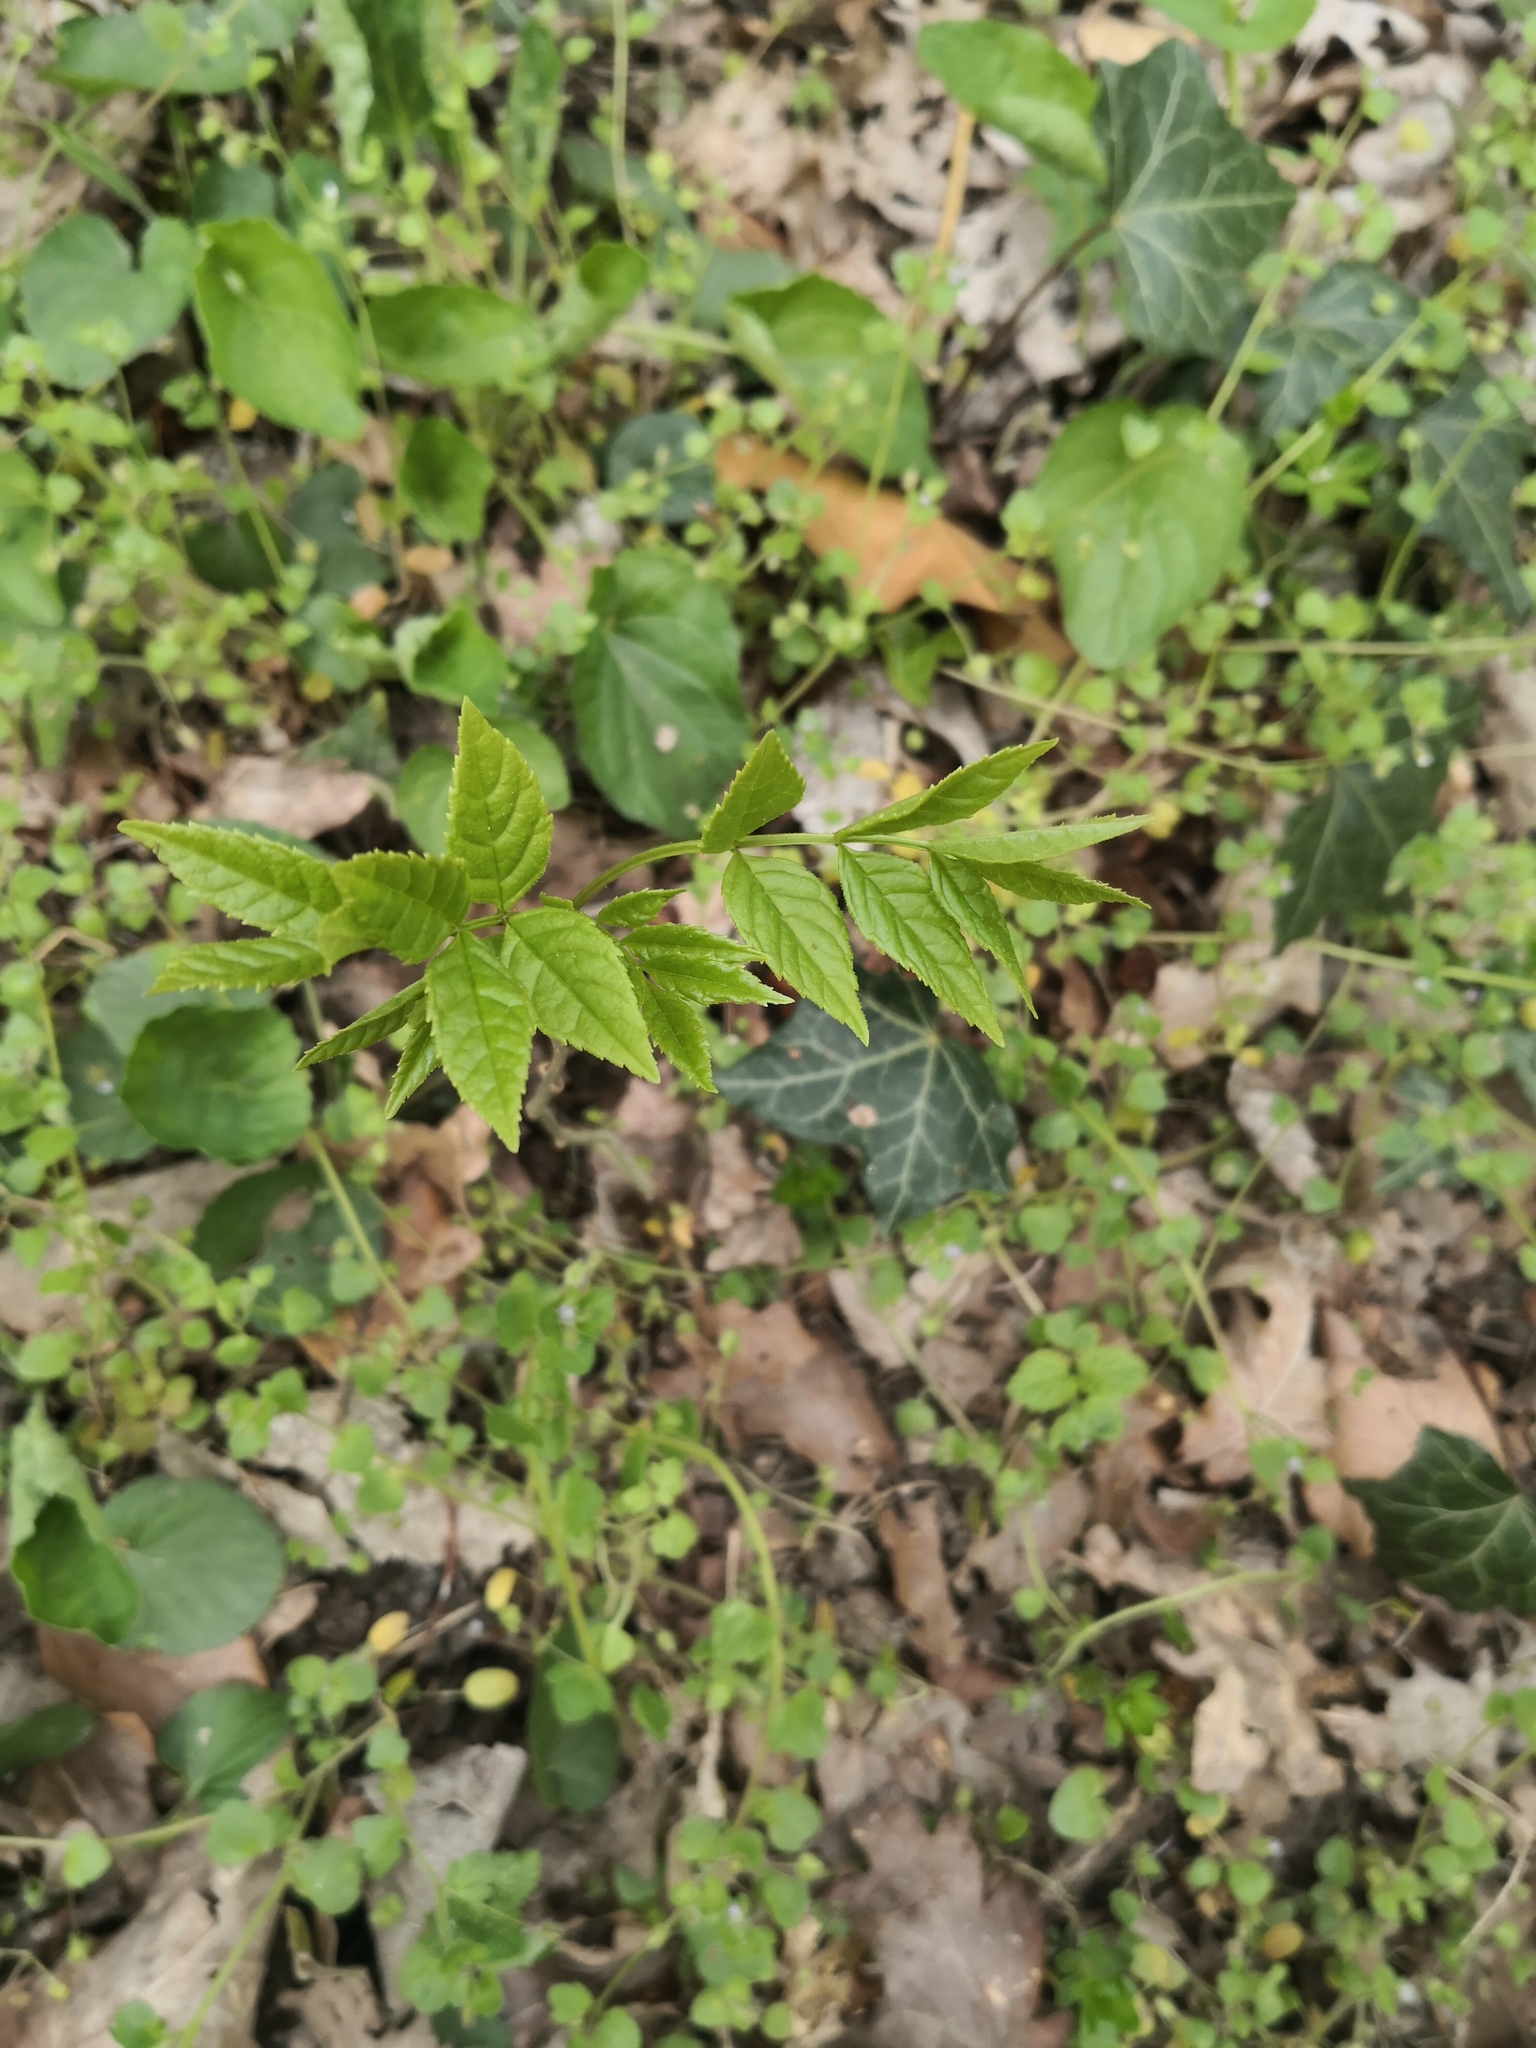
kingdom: Plantae
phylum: Tracheophyta
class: Magnoliopsida
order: Lamiales
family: Oleaceae
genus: Fraxinus
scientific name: Fraxinus excelsior
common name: European ash
